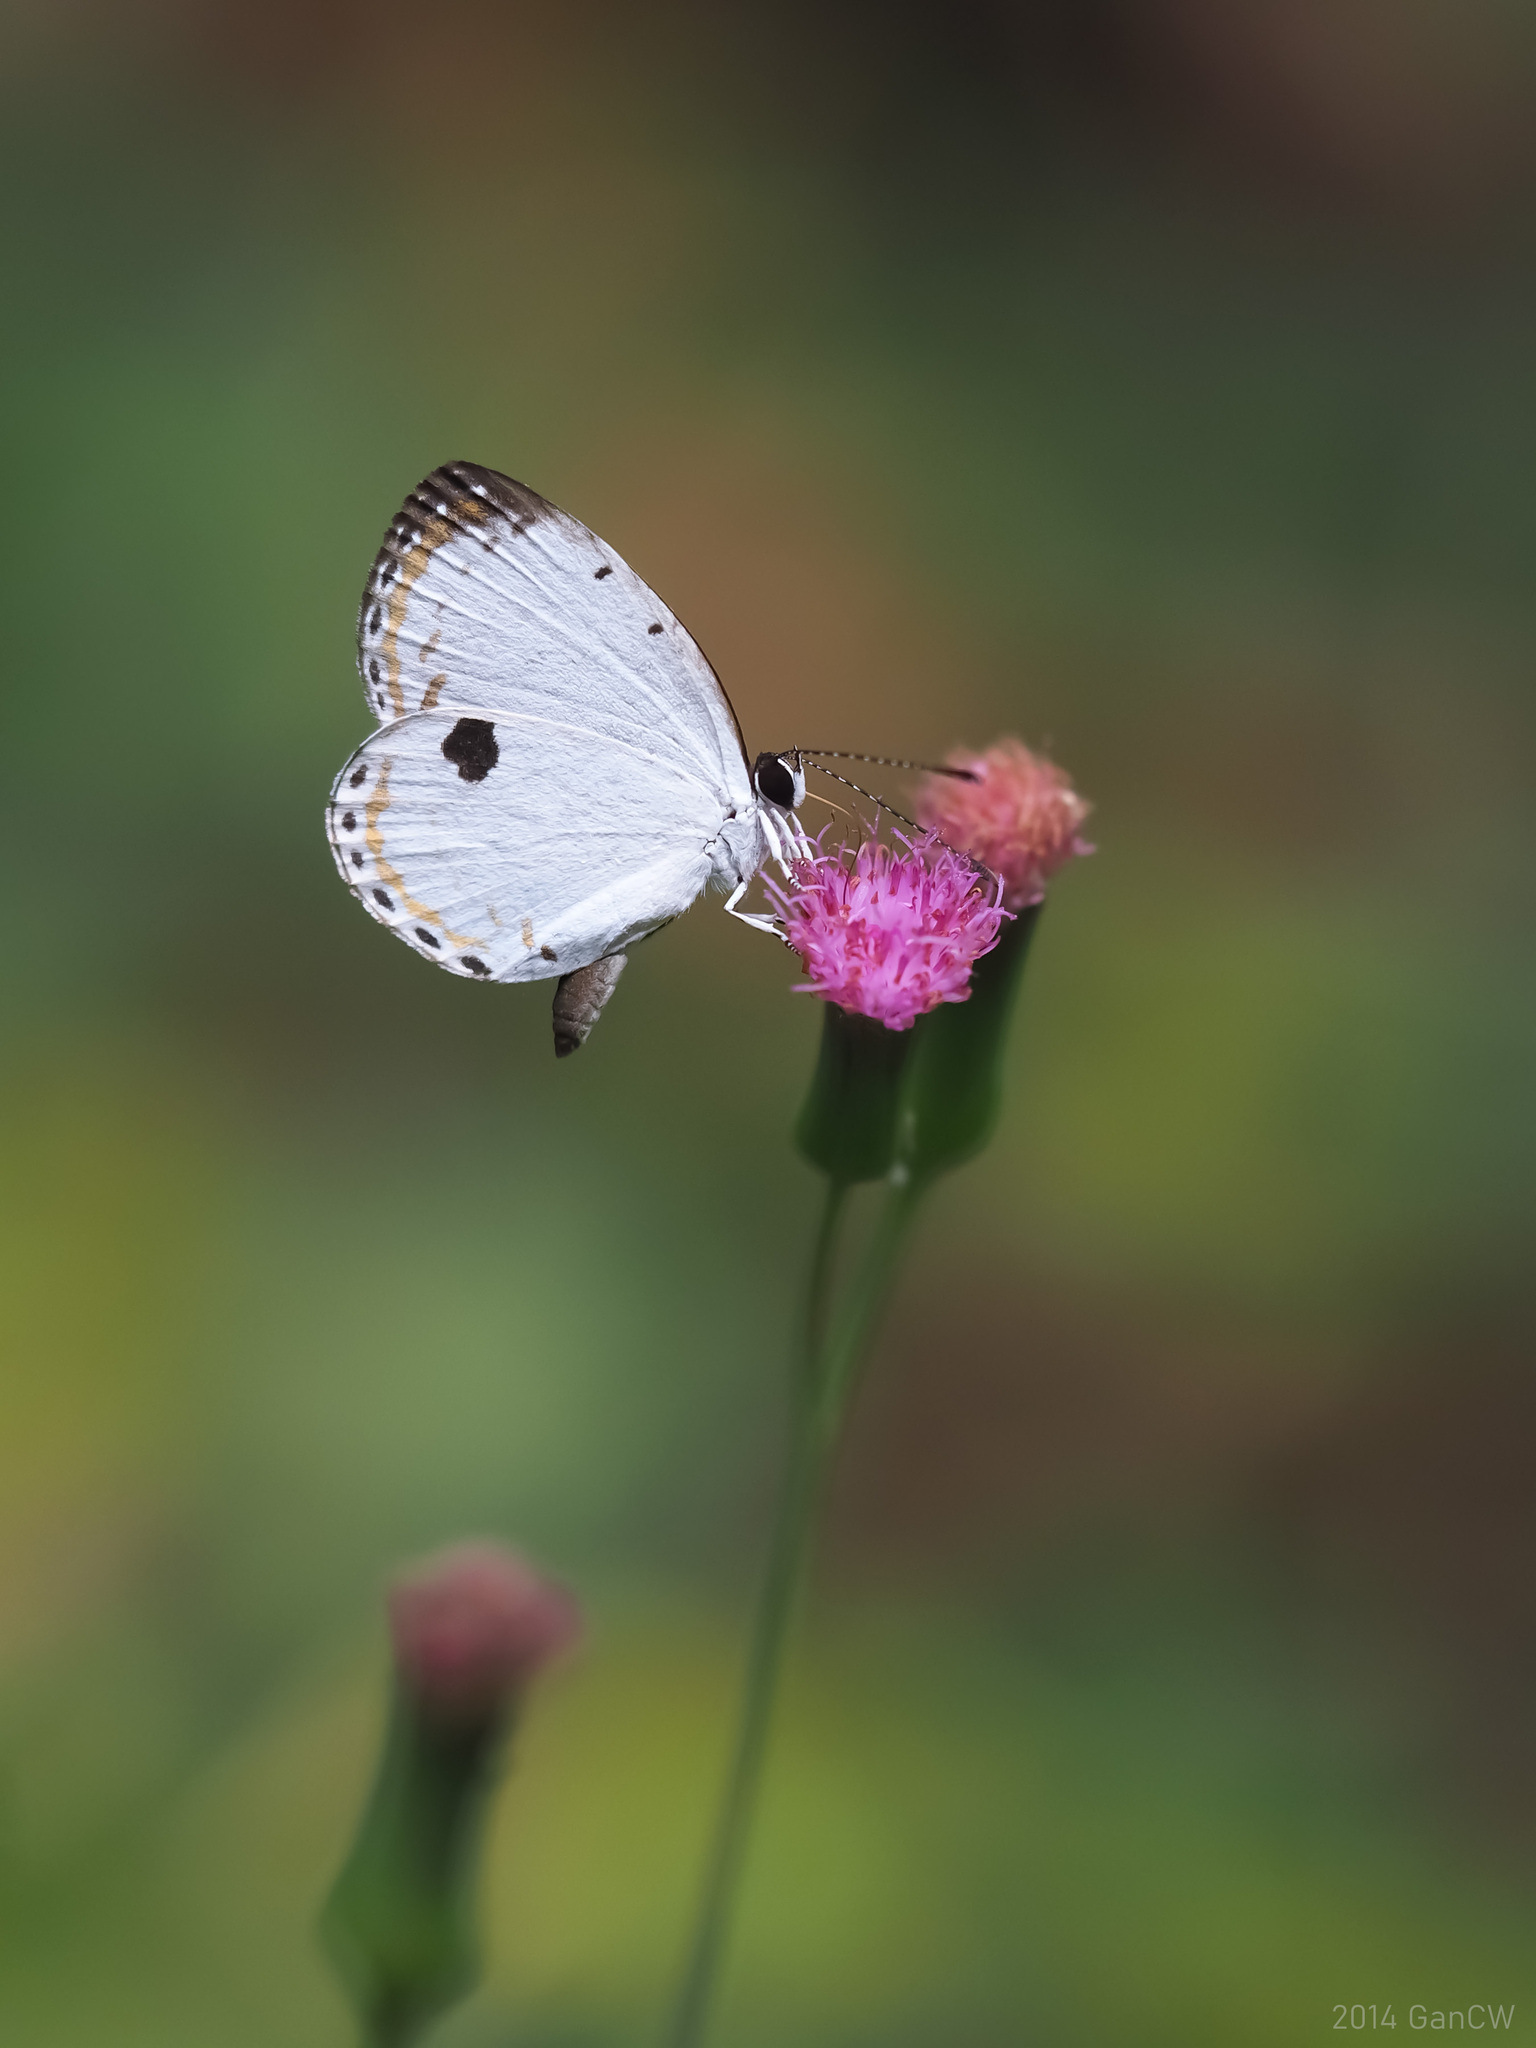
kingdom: Animalia
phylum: Arthropoda
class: Insecta
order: Lepidoptera
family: Lycaenidae
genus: Pithecops
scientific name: Pithecops corvus
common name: Forest quaker
